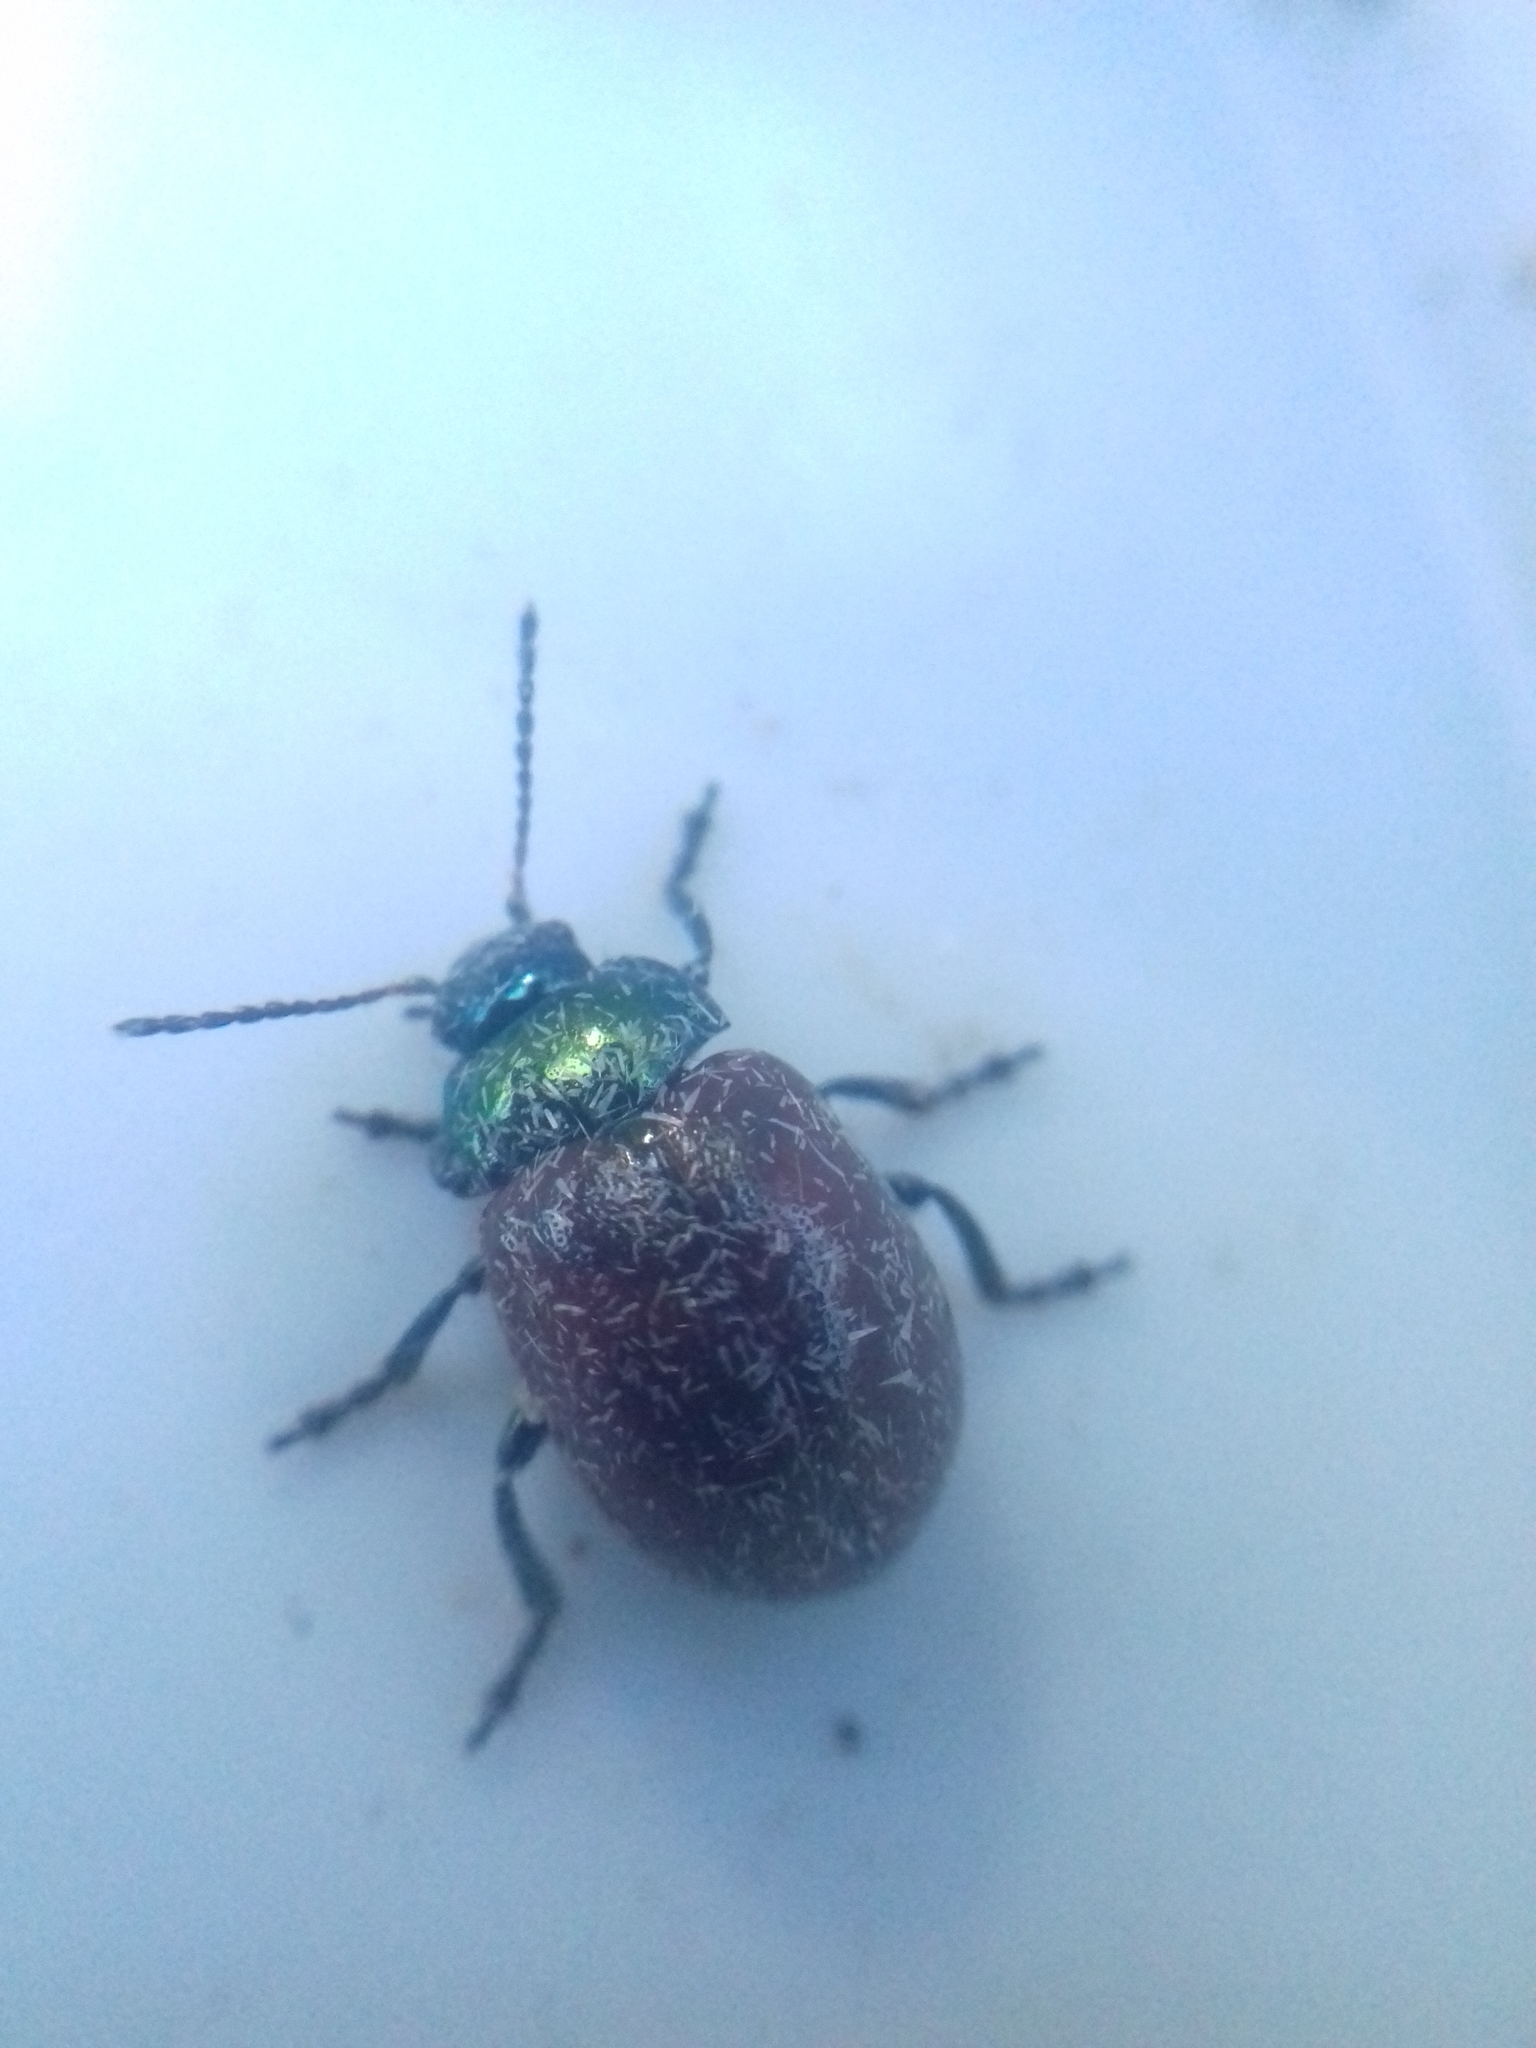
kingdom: Animalia
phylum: Arthropoda
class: Insecta
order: Coleoptera
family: Chrysomelidae
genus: Chrysomela
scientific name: Chrysomela polita
